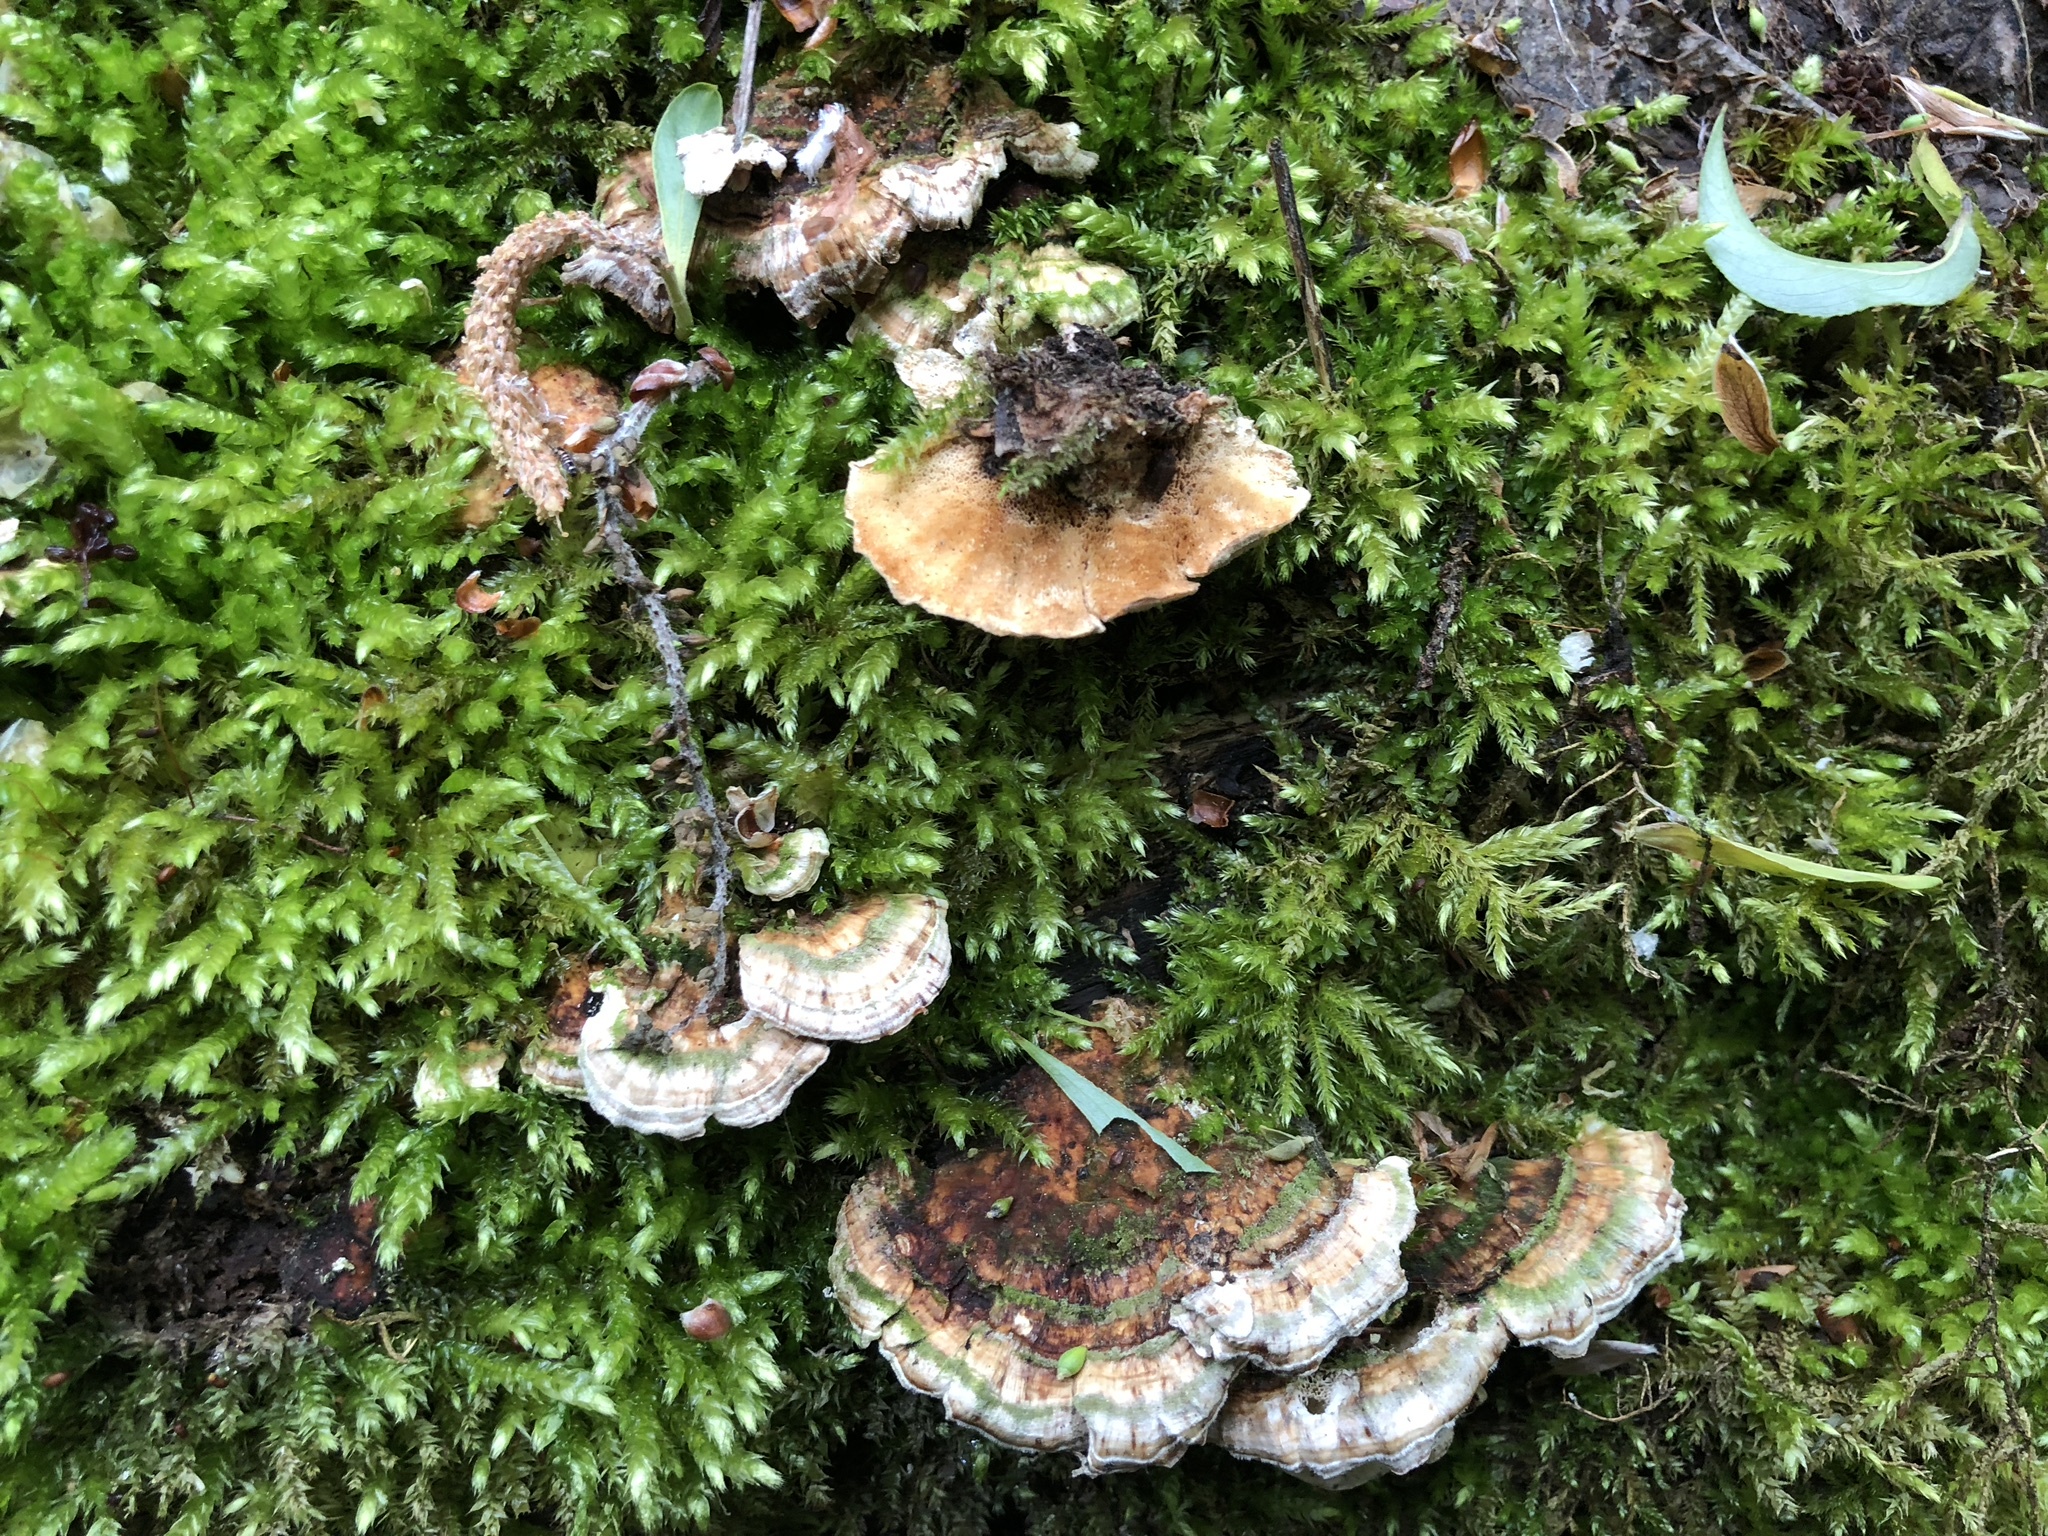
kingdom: Fungi
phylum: Basidiomycota
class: Agaricomycetes
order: Polyporales
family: Polyporaceae
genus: Trametes
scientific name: Trametes versicolor
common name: Turkeytail
